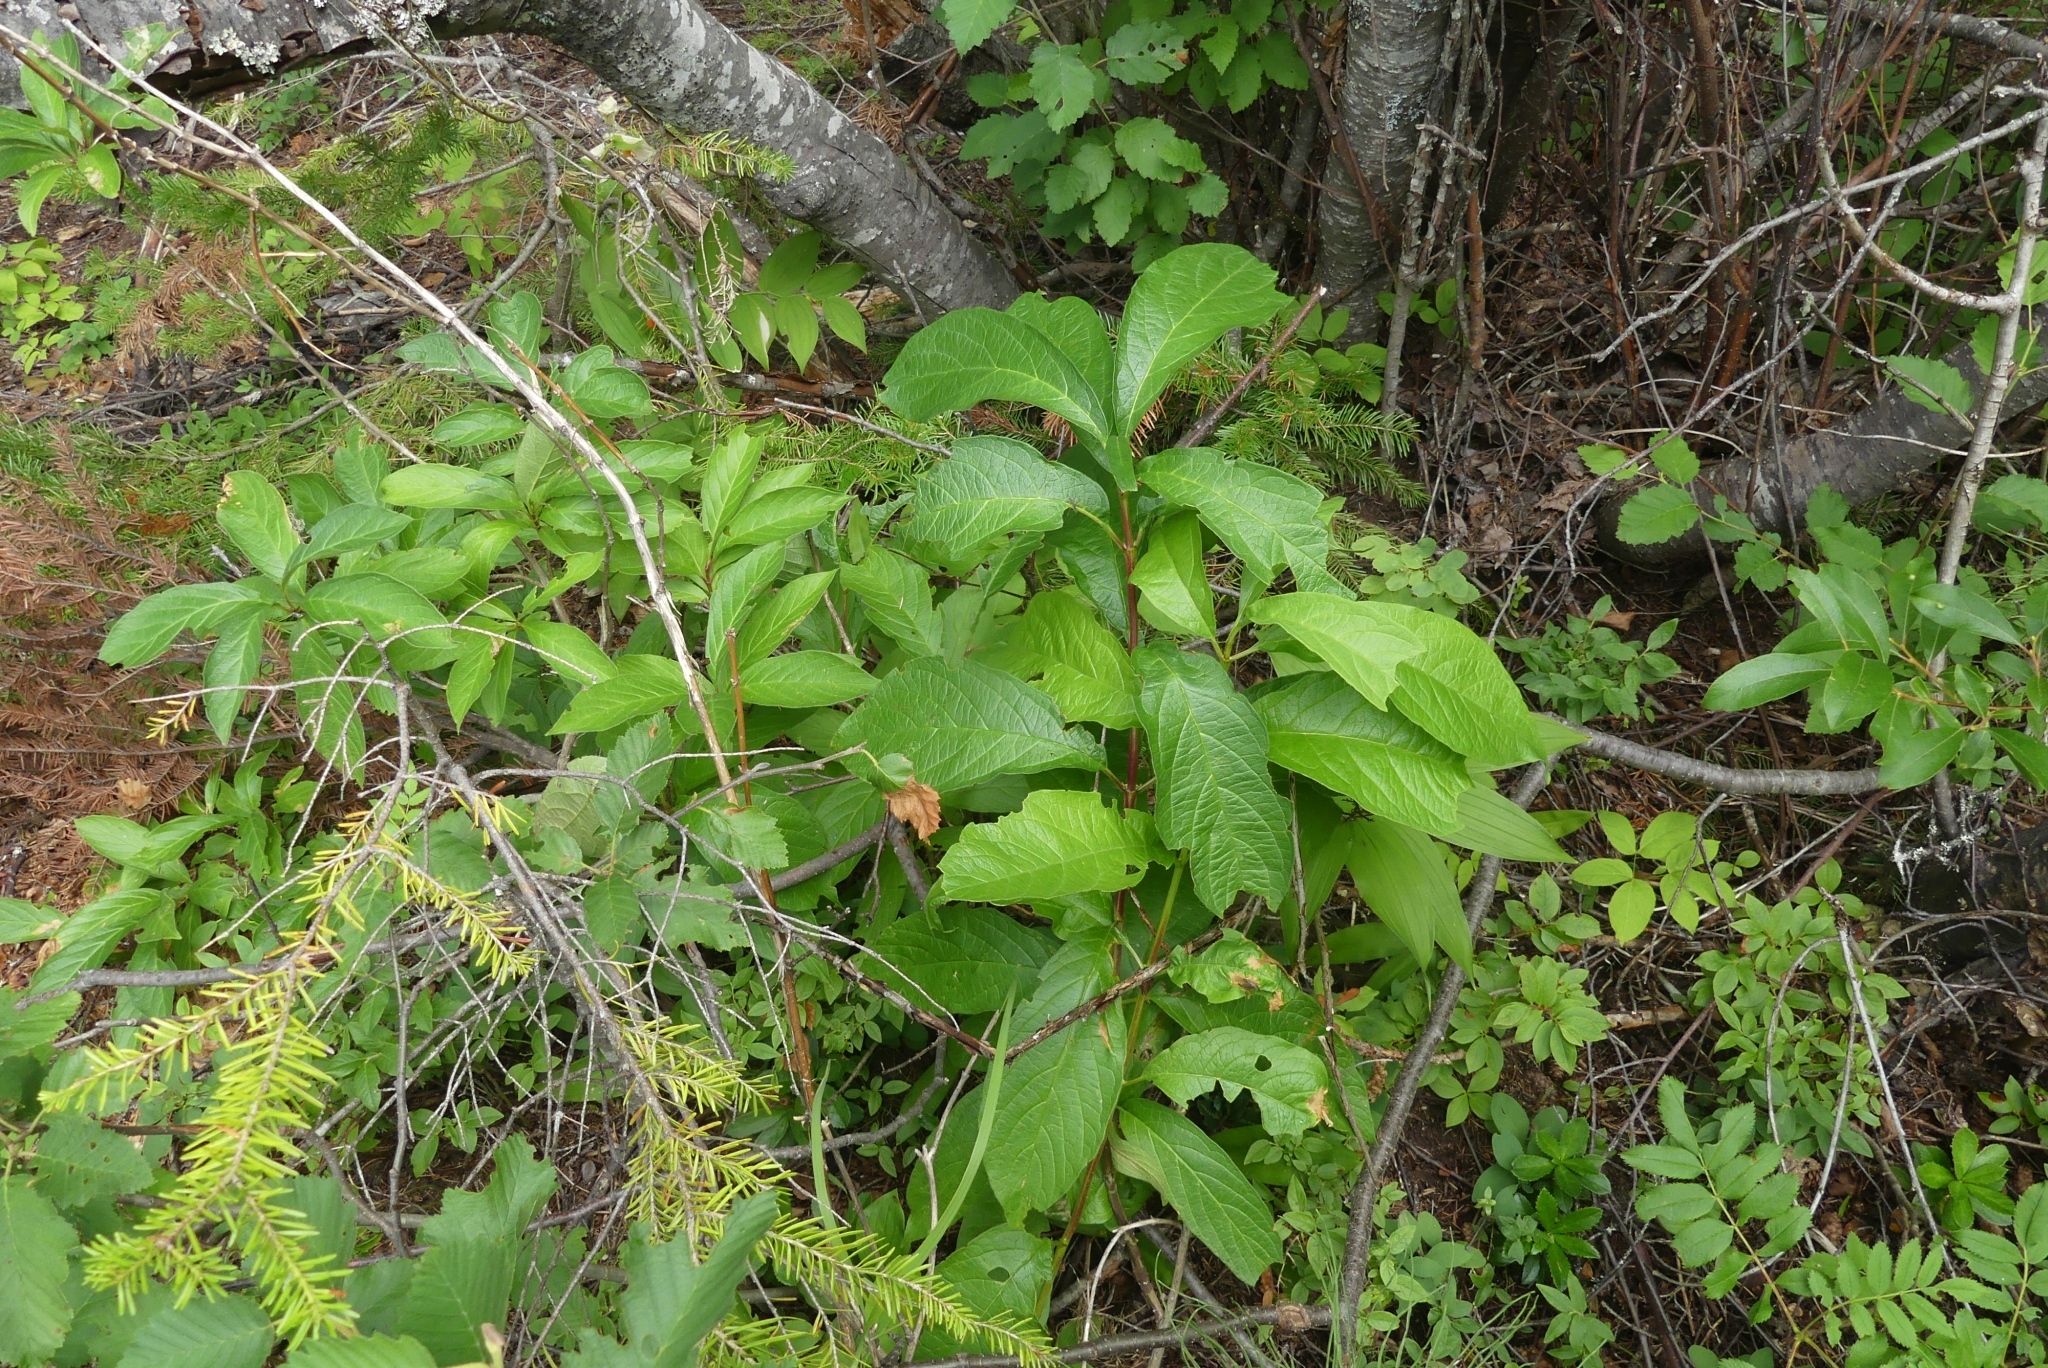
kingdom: Plantae
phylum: Tracheophyta
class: Magnoliopsida
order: Dipsacales
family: Caprifoliaceae
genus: Lonicera
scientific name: Lonicera involucrata
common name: Californian honeysuckle
